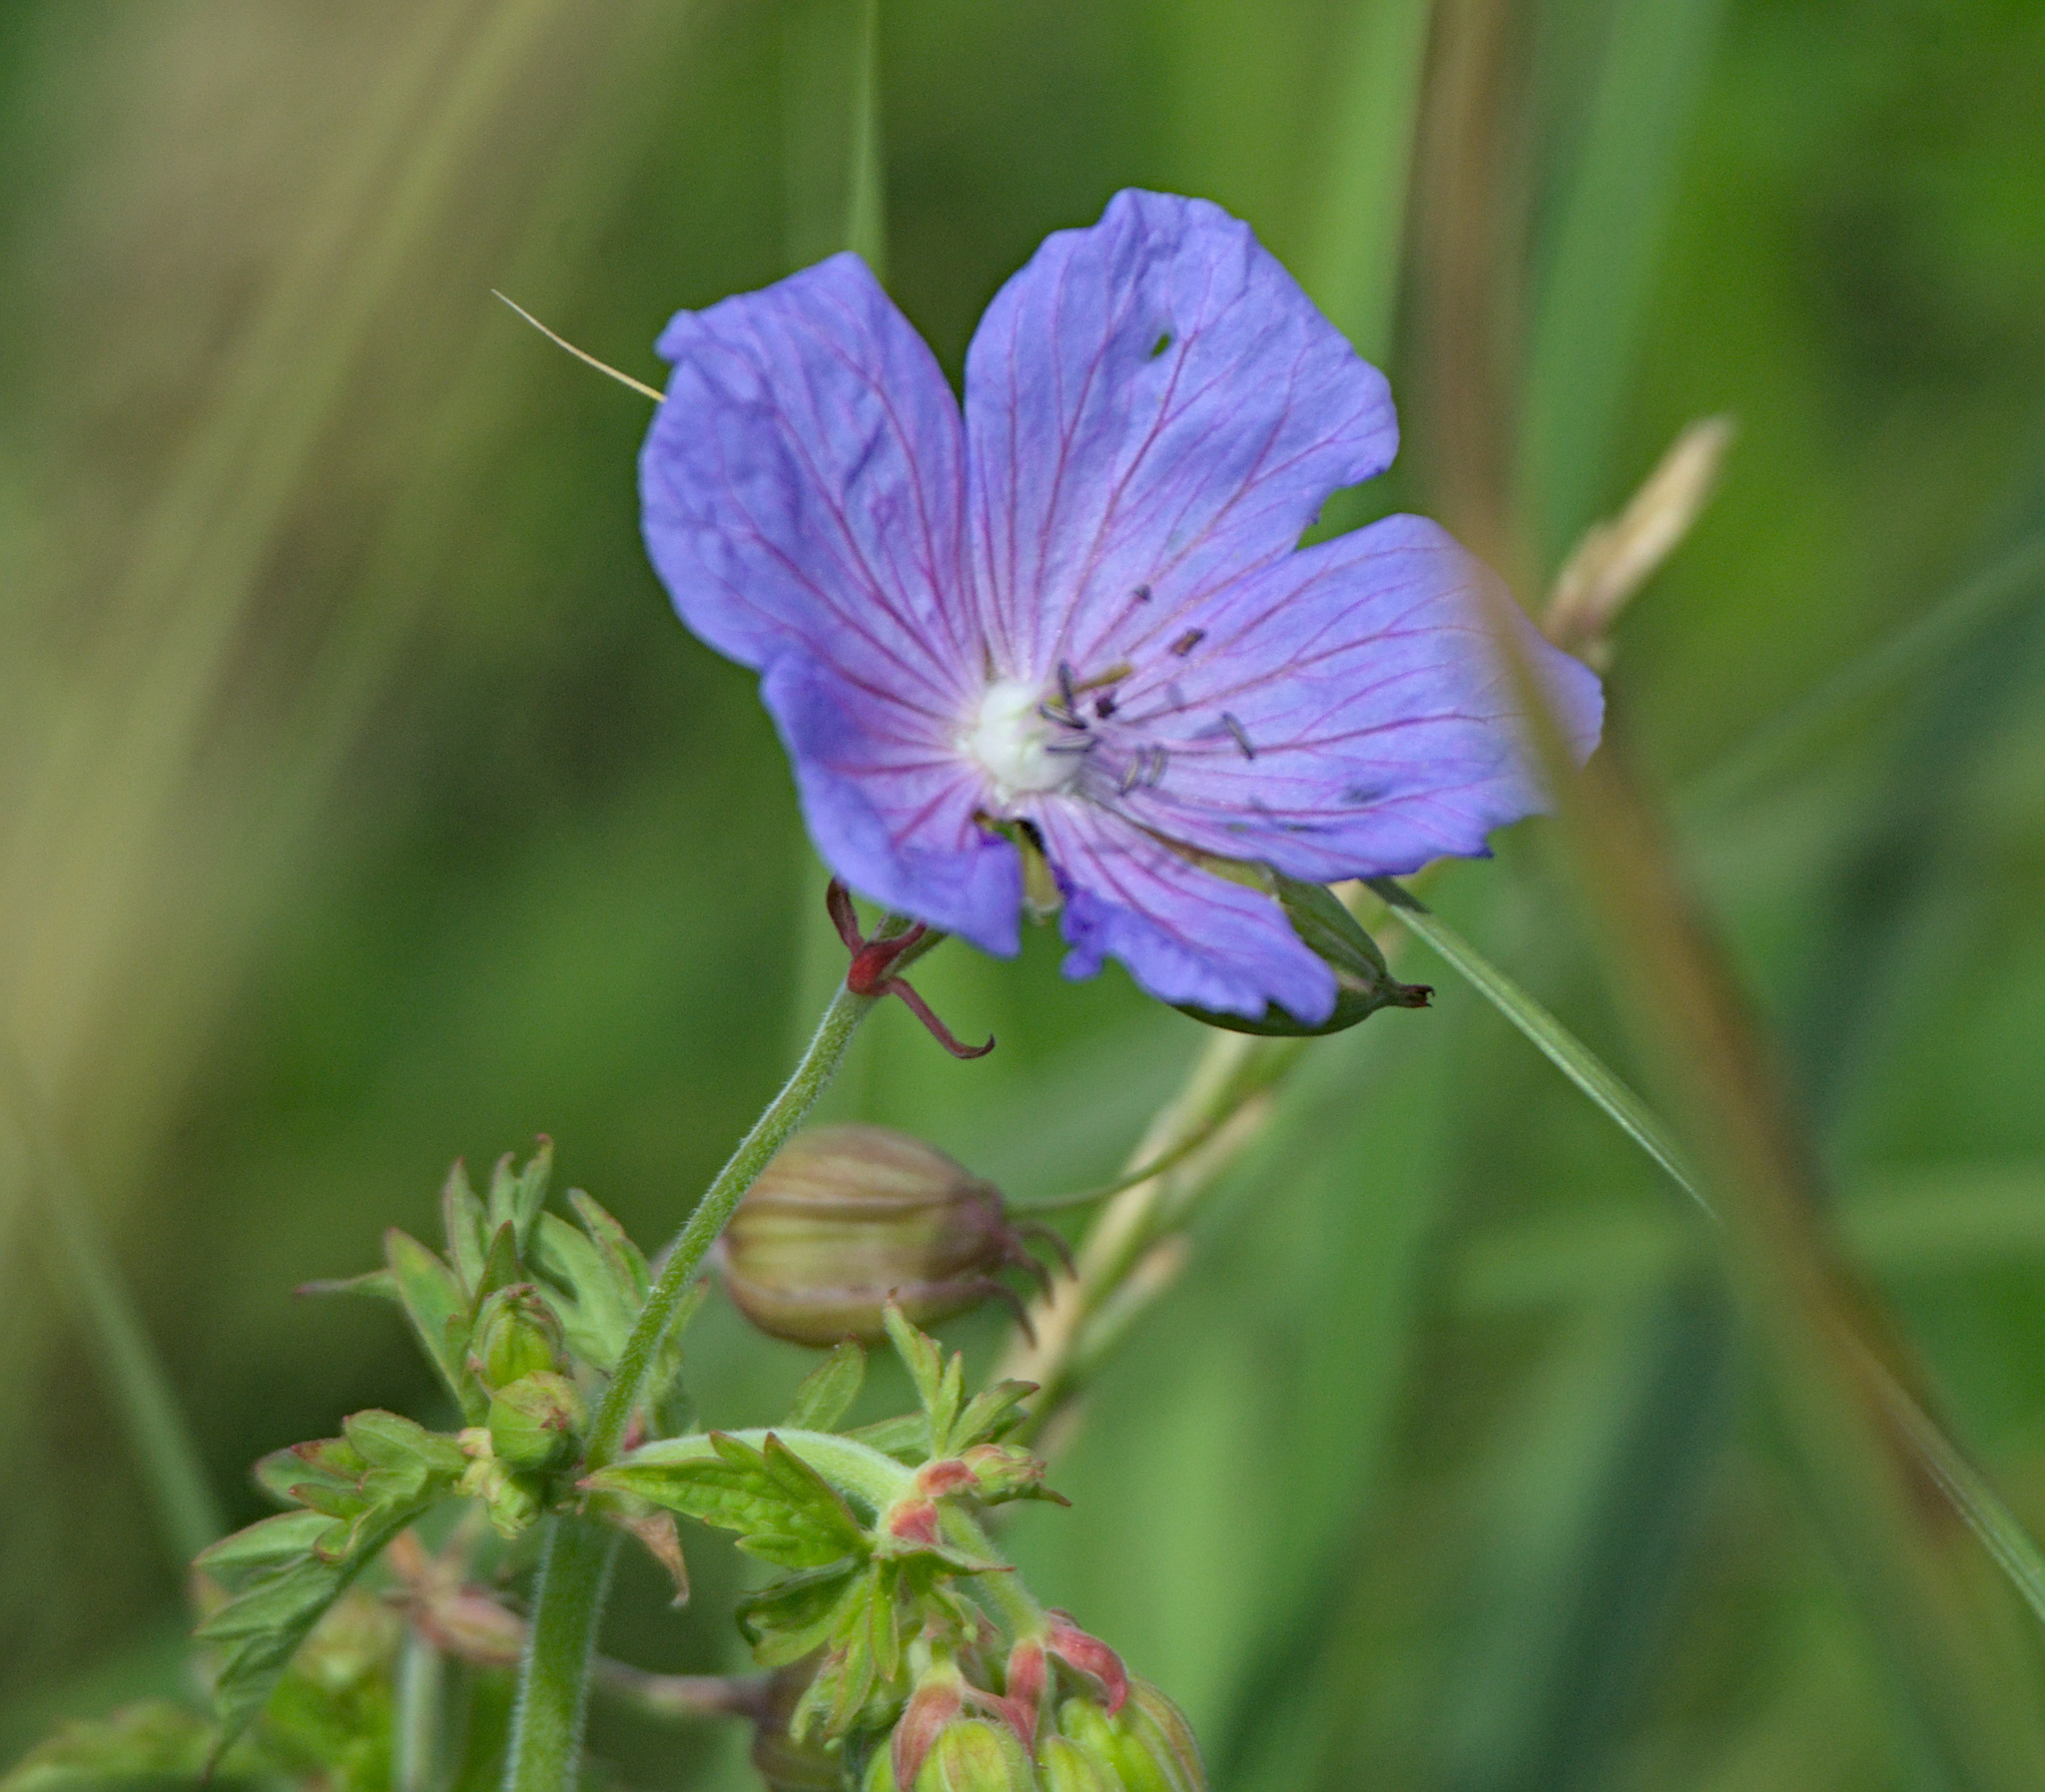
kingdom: Plantae
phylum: Tracheophyta
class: Magnoliopsida
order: Geraniales
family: Geraniaceae
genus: Geranium
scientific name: Geranium pratense
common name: Meadow crane's-bill
